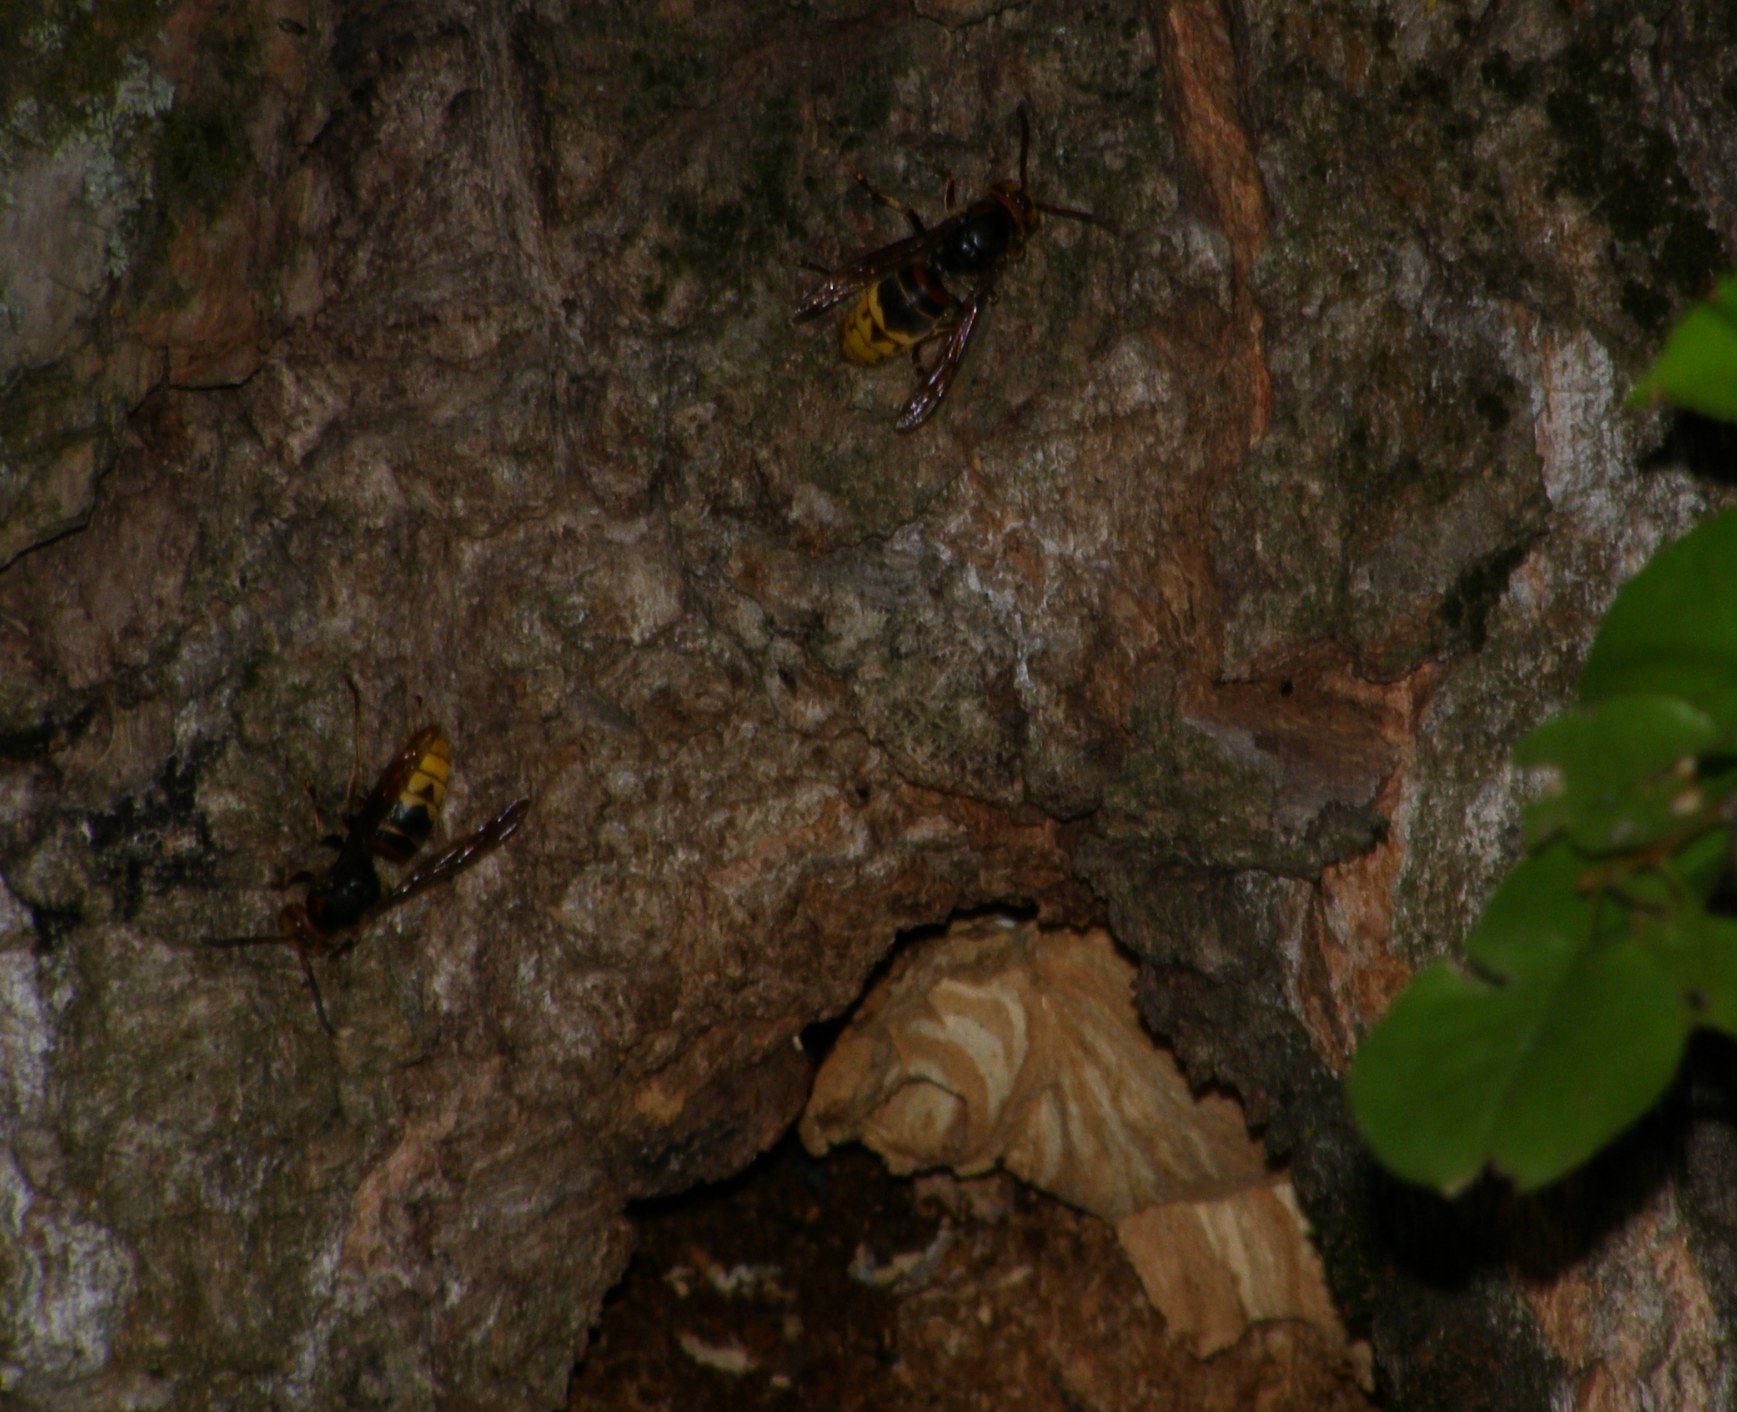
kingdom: Animalia
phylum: Arthropoda
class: Insecta
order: Hymenoptera
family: Vespidae
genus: Vespa
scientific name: Vespa crabro
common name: Hornet
